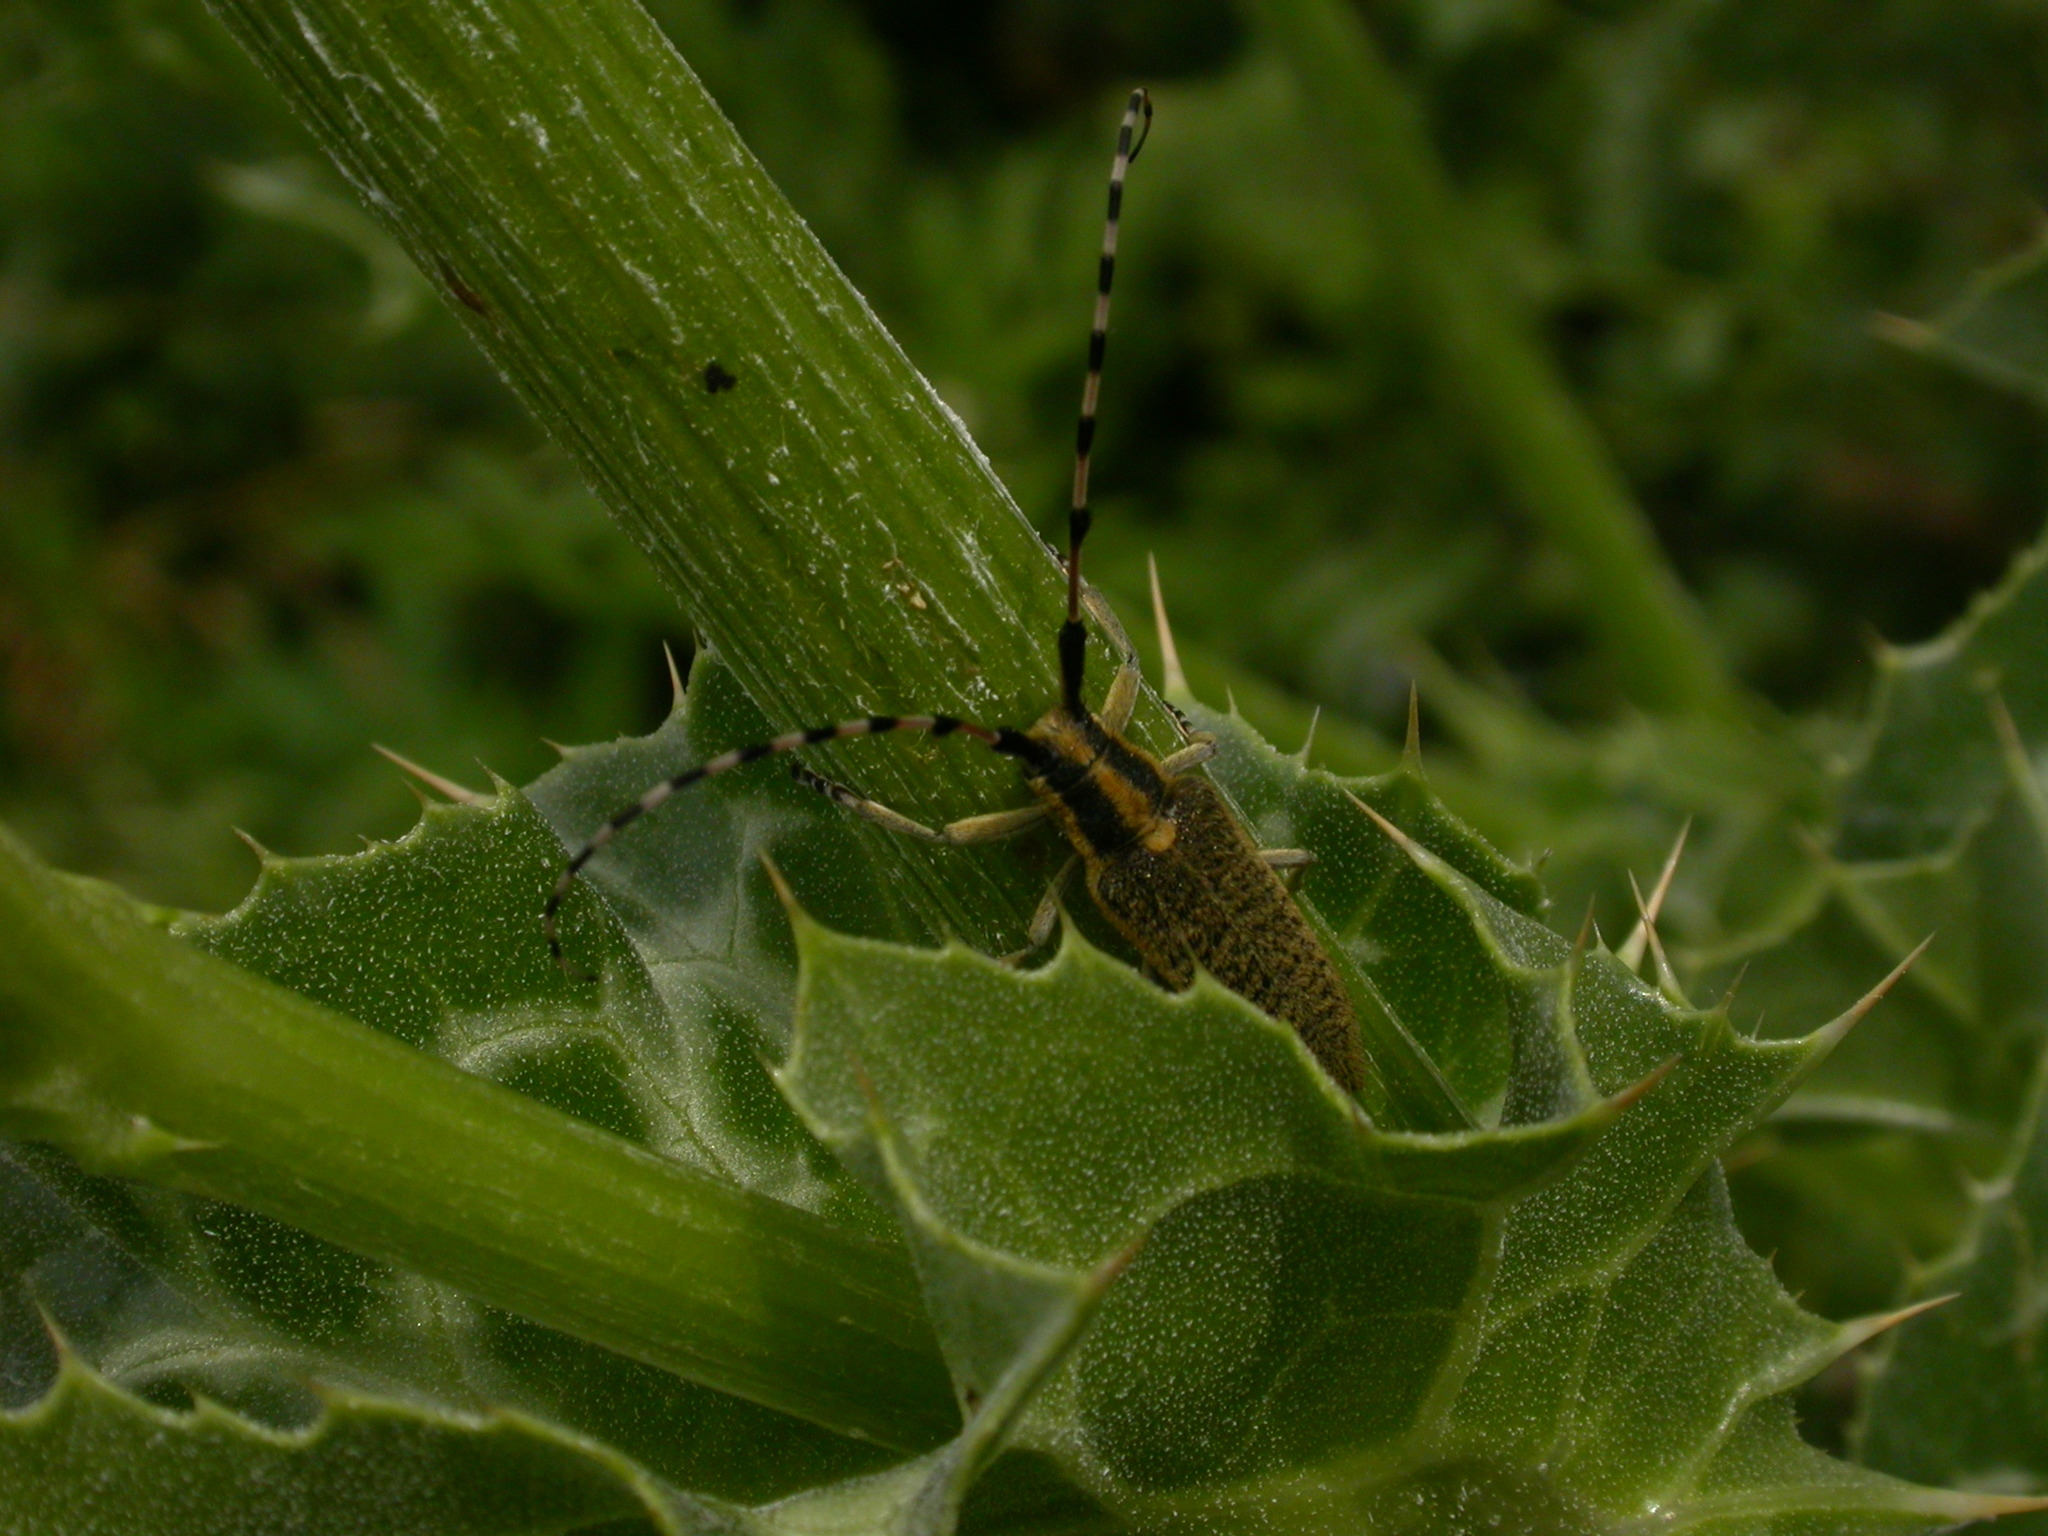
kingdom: Animalia
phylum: Arthropoda
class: Insecta
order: Coleoptera
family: Cerambycidae
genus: Agapanthia
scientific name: Agapanthia dahlii
